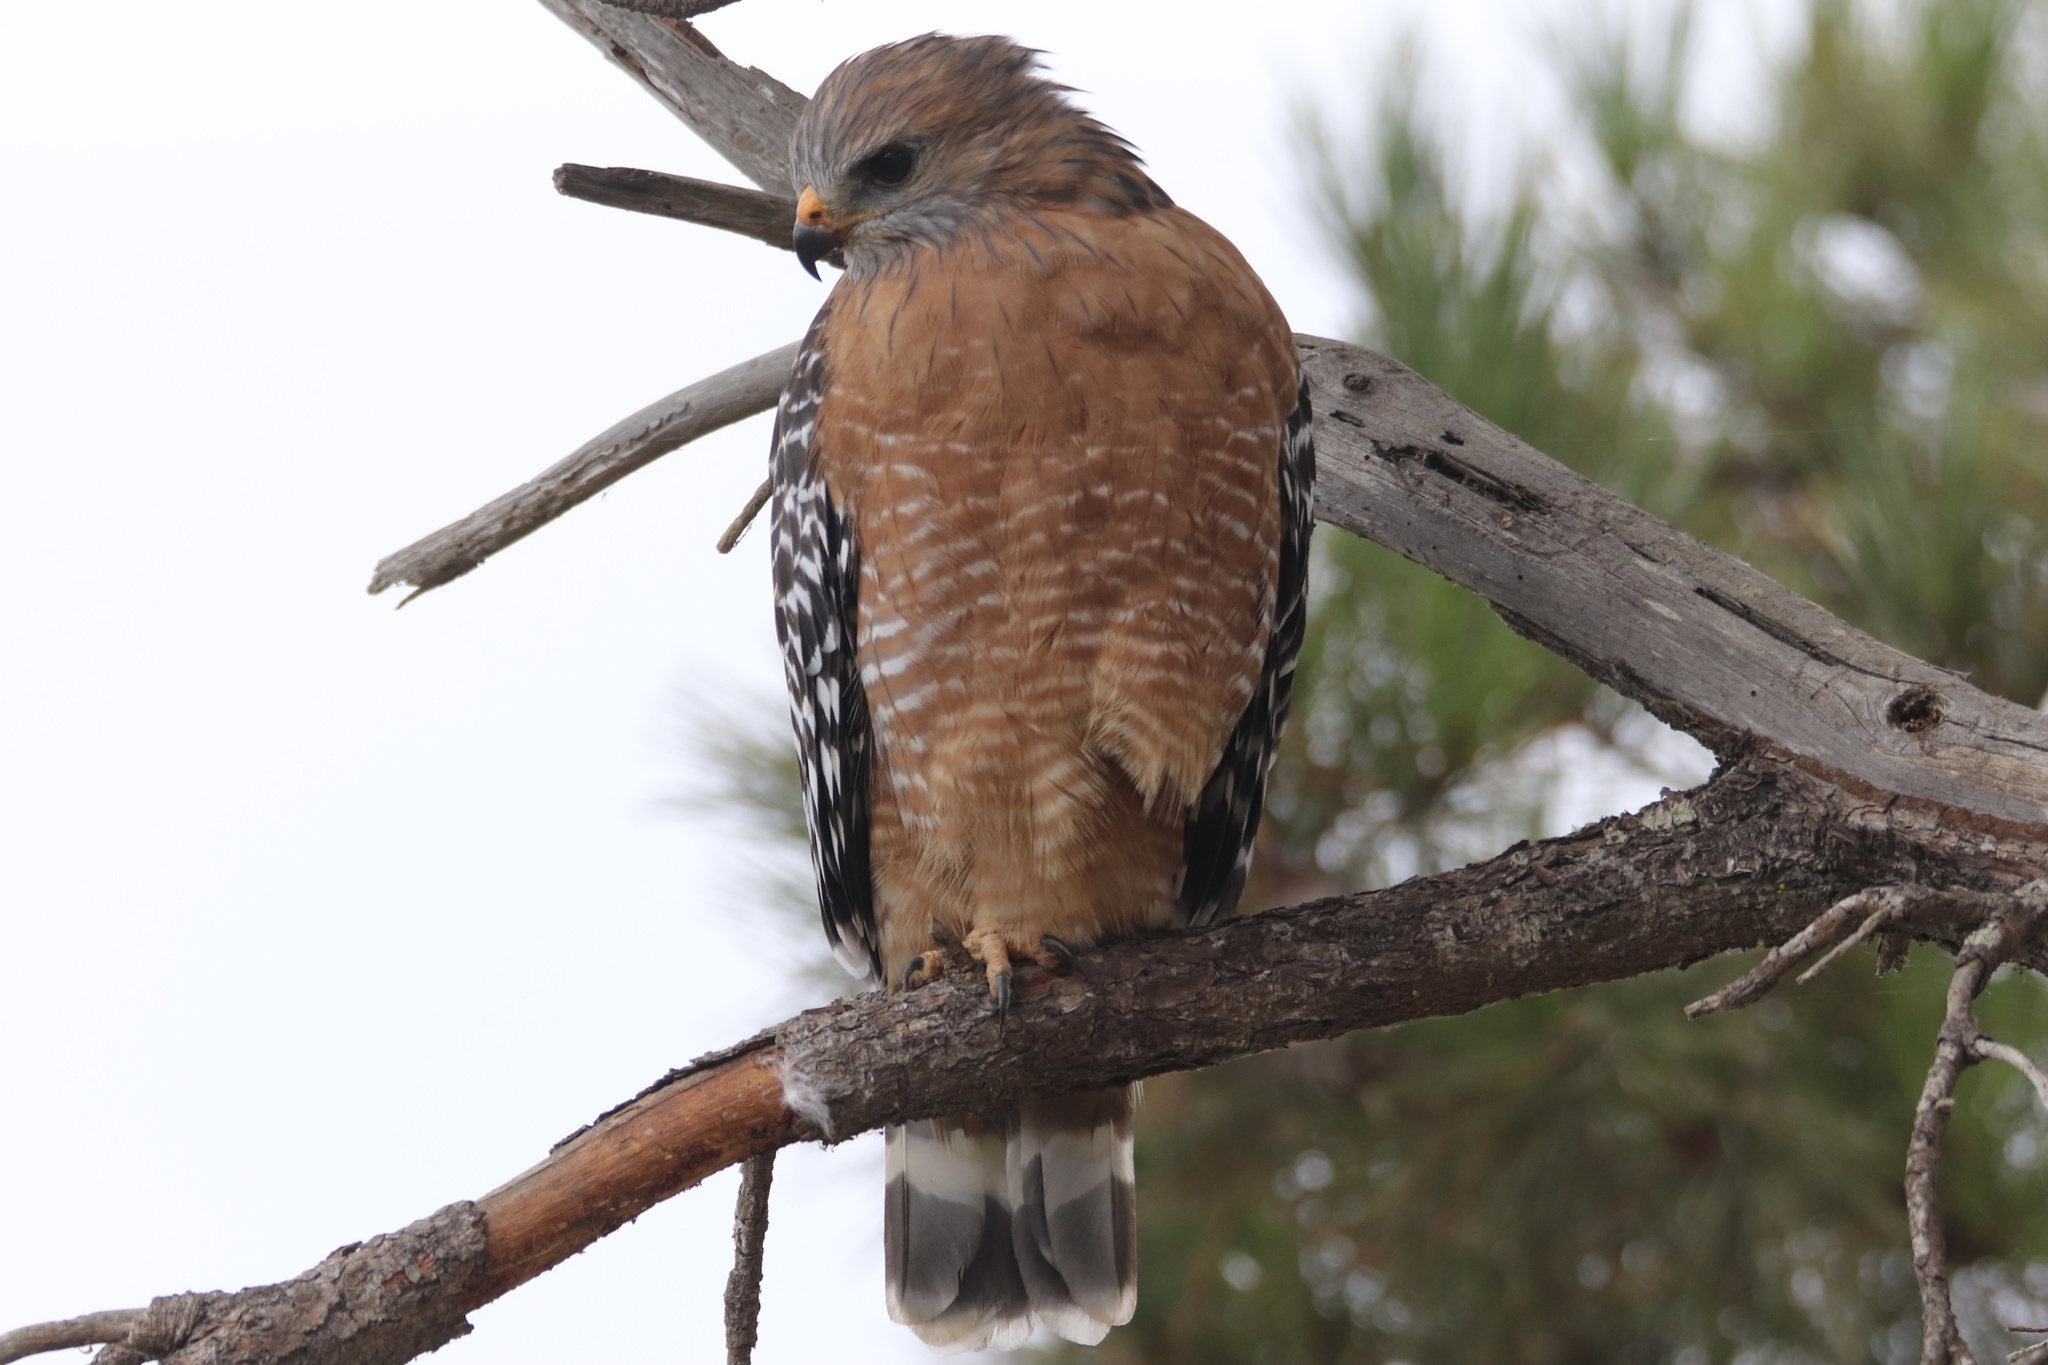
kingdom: Animalia
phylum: Chordata
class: Aves
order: Accipitriformes
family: Accipitridae
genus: Buteo
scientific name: Buteo lineatus
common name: Red-shouldered hawk
